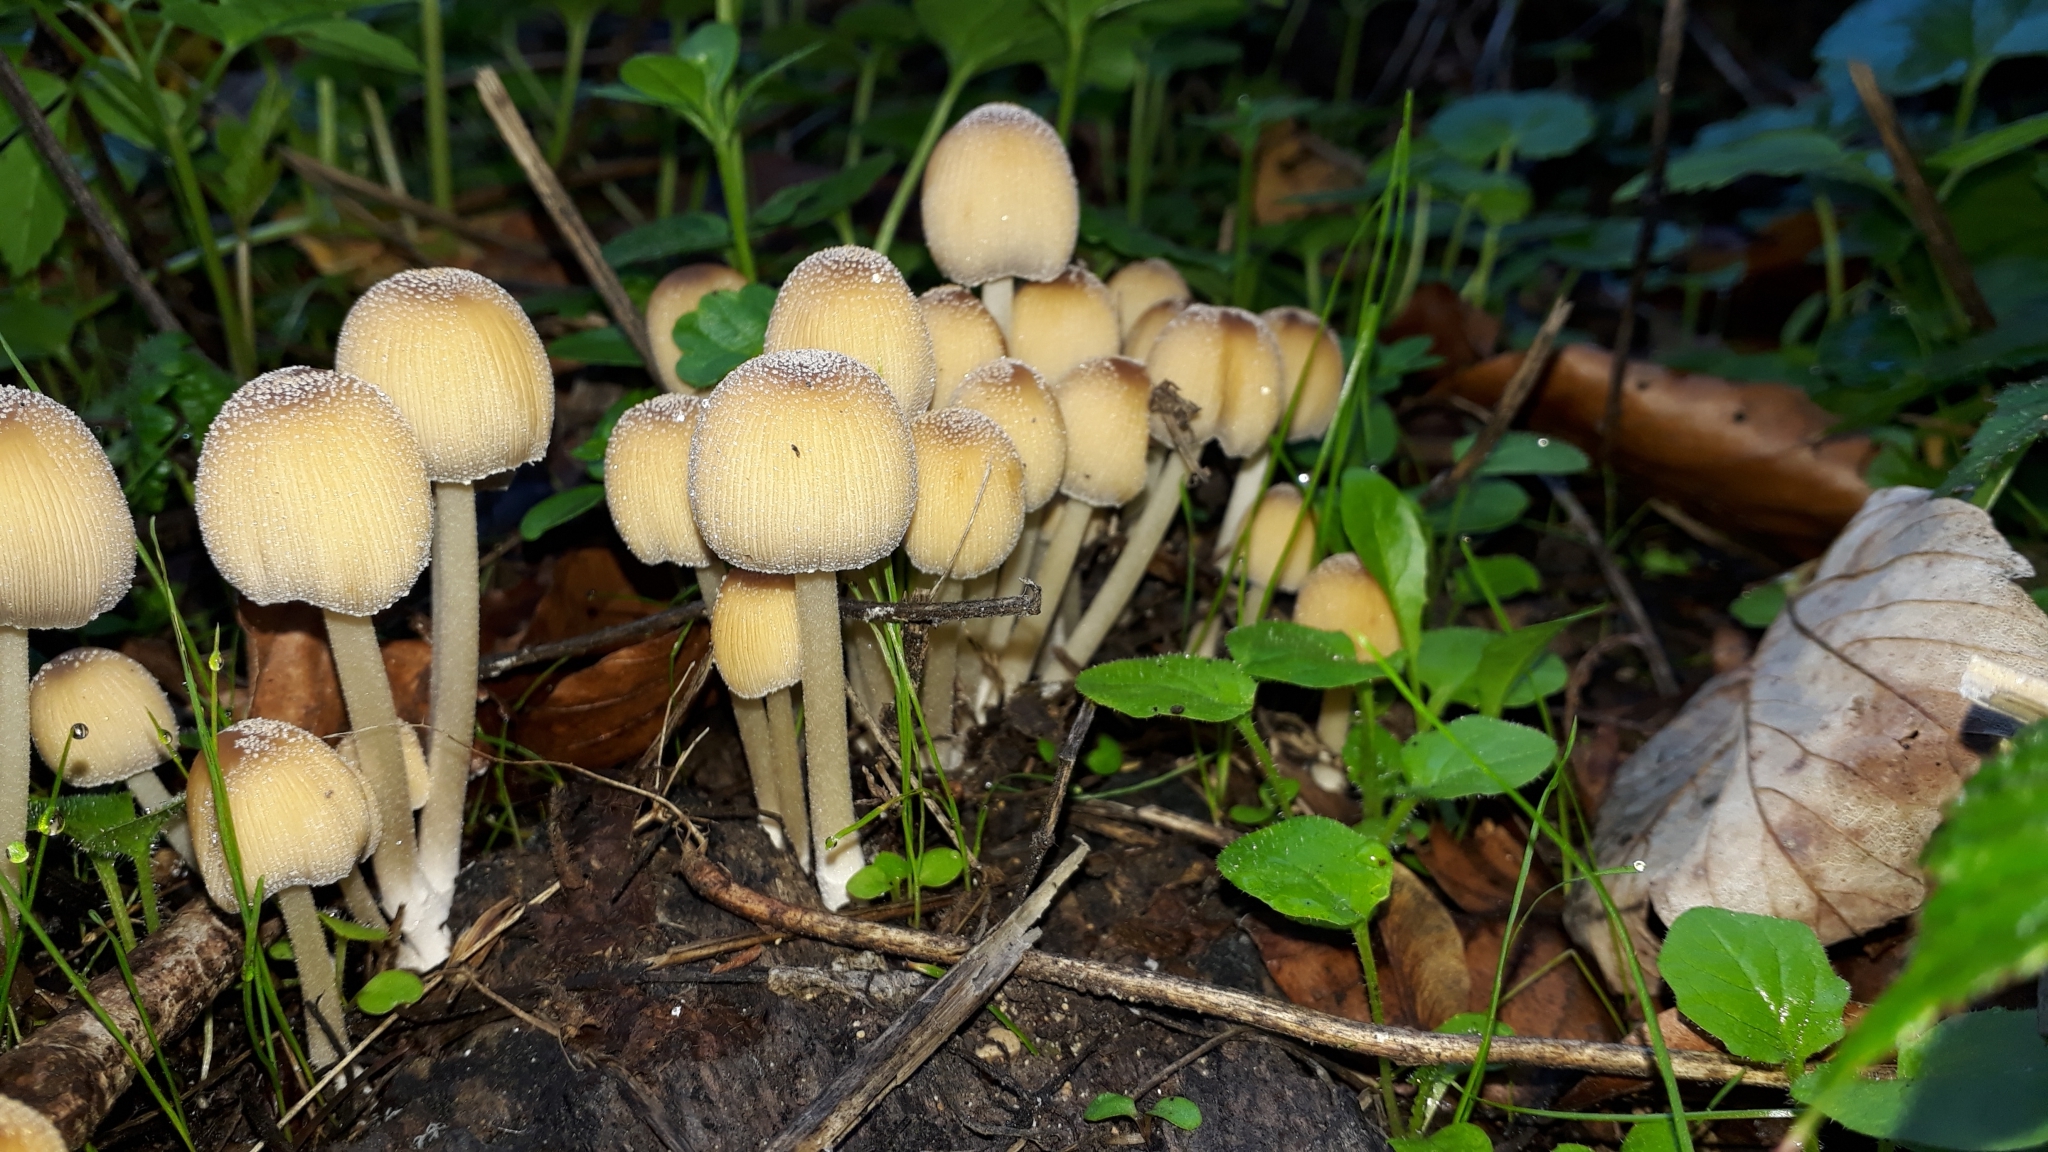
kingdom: Fungi
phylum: Basidiomycota
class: Agaricomycetes
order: Agaricales
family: Psathyrellaceae
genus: Coprinellus
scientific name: Coprinellus micaceus
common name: Glistening ink-cap
